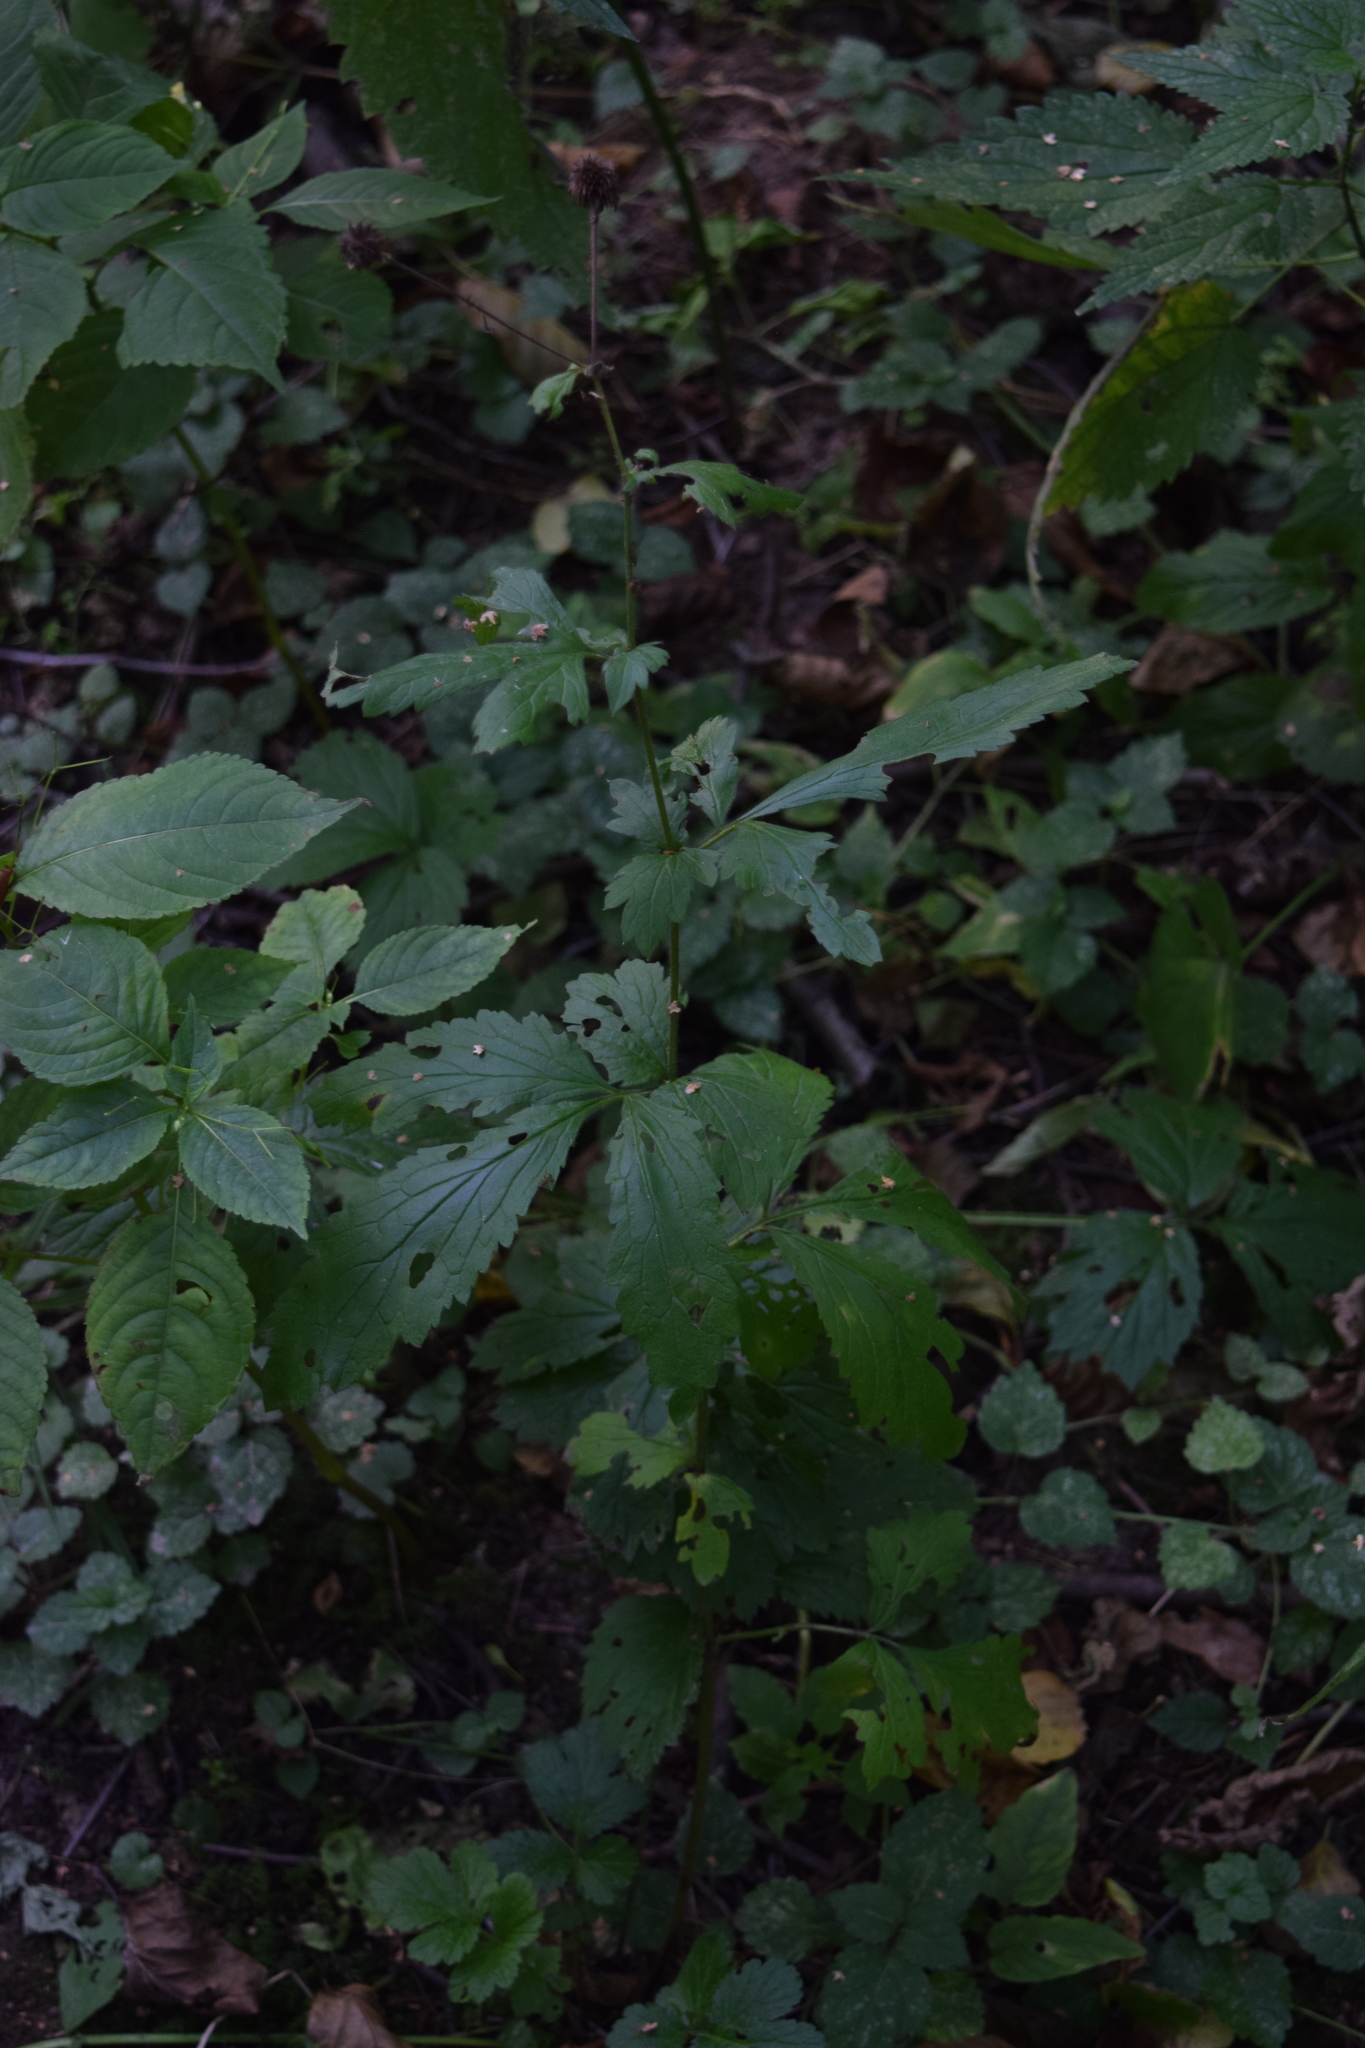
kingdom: Plantae
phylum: Tracheophyta
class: Magnoliopsida
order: Rosales
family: Rosaceae
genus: Geum
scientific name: Geum urbanum
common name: Wood avens
